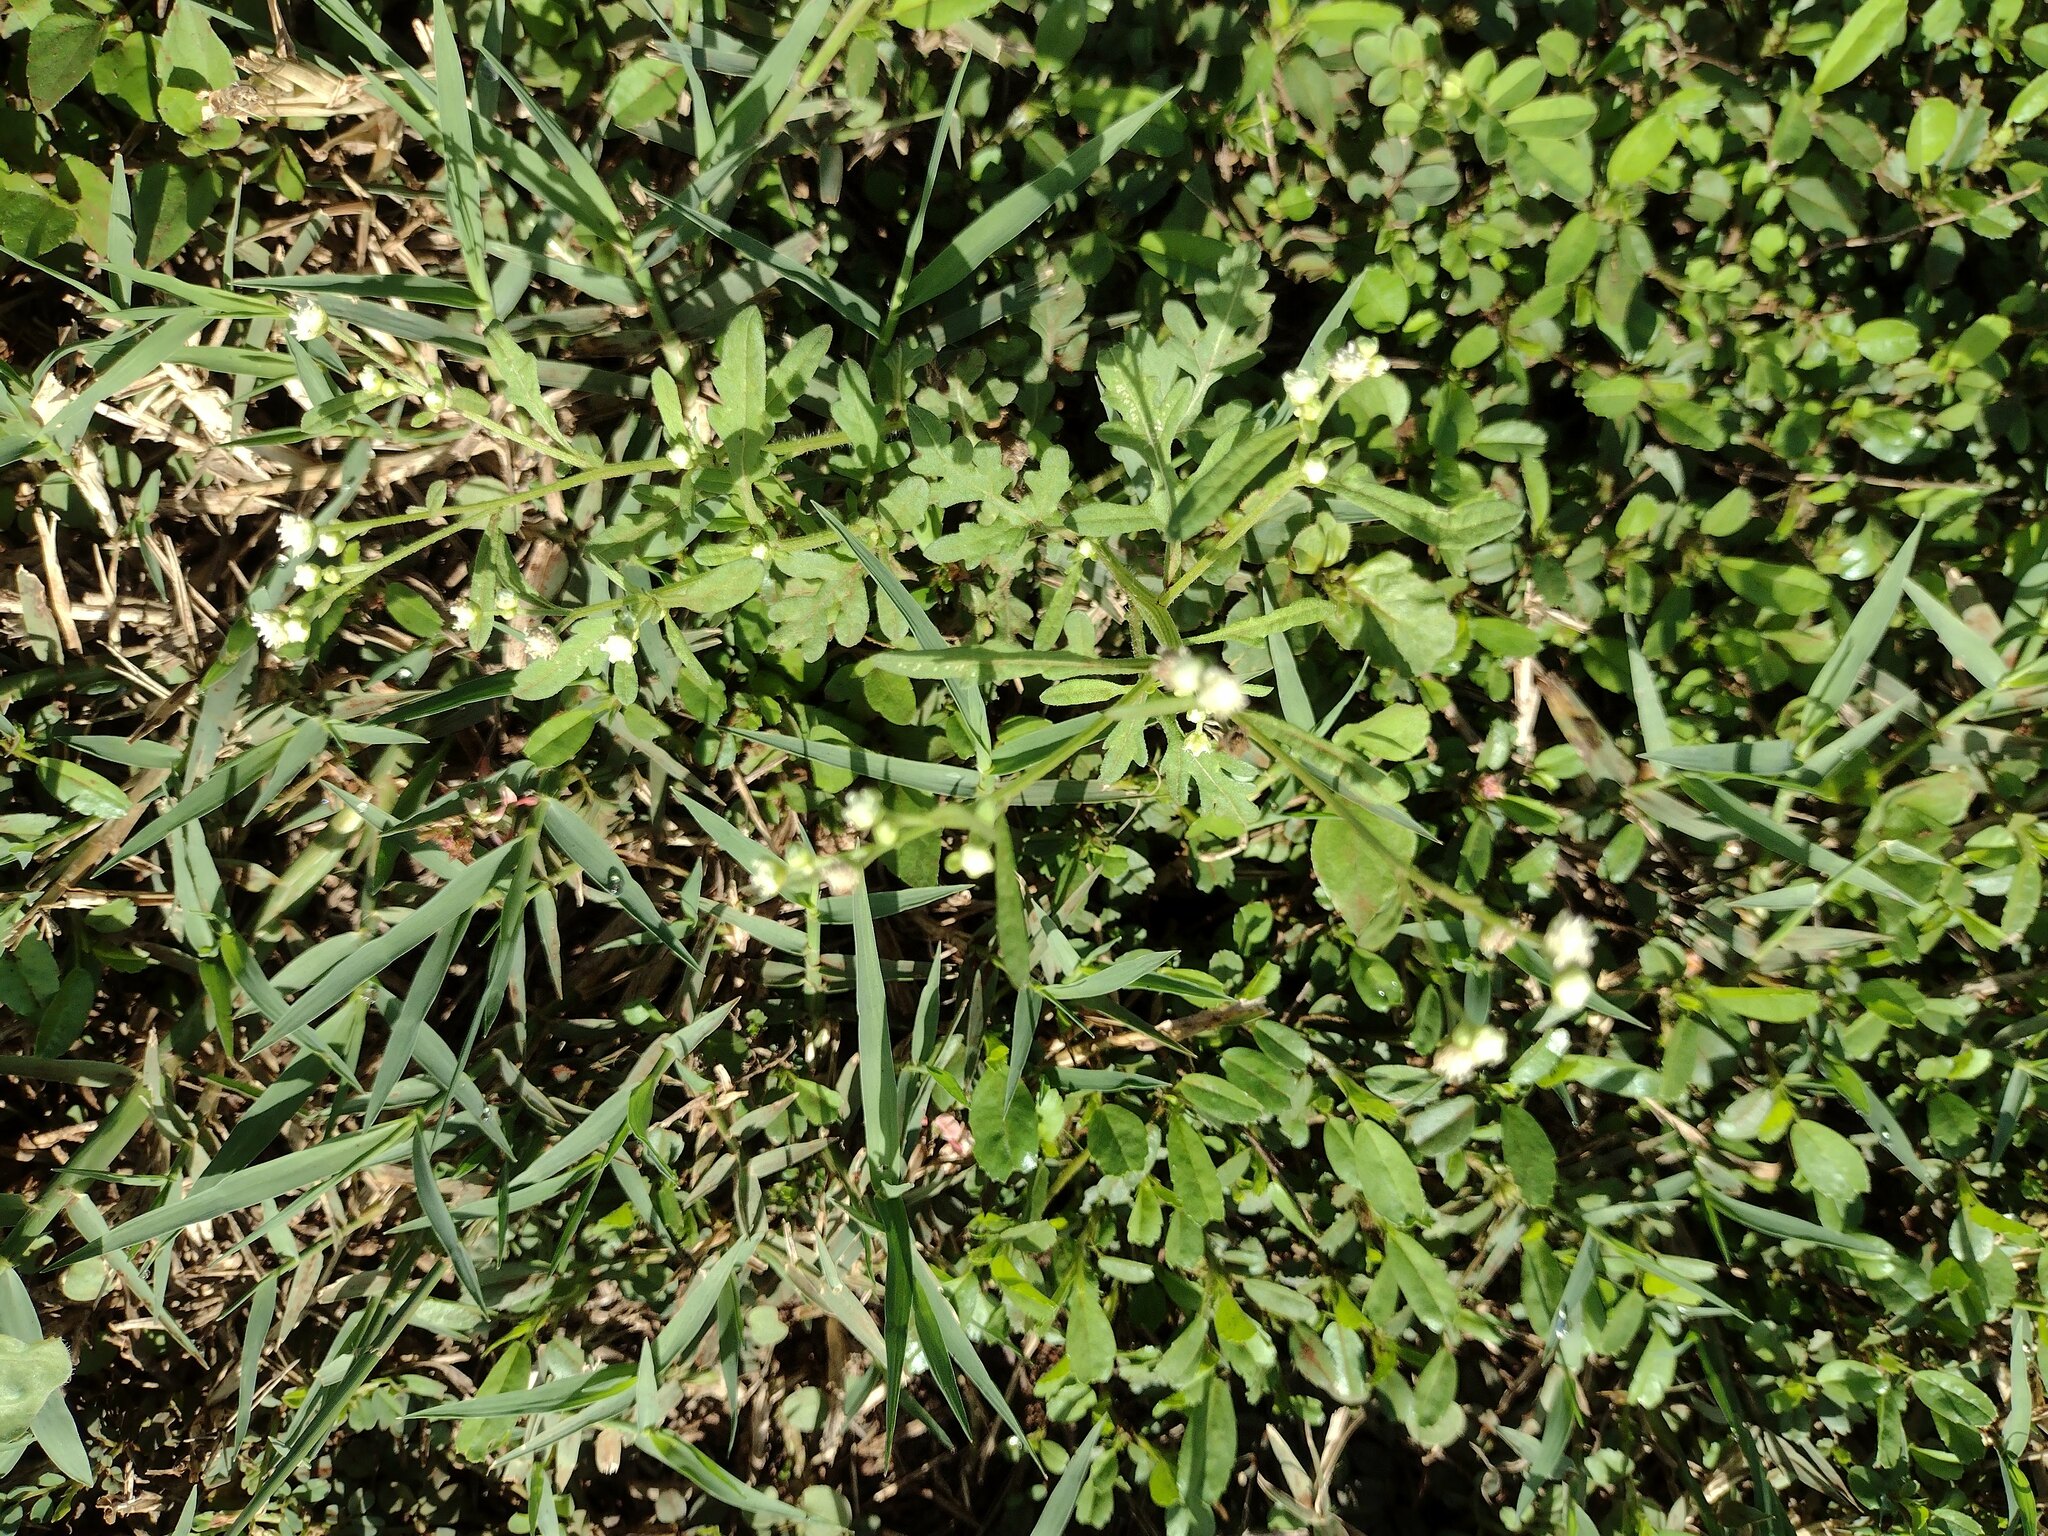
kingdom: Plantae
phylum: Tracheophyta
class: Magnoliopsida
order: Asterales
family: Asteraceae
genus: Parthenium
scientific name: Parthenium hysterophorus
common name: Santa maria feverfew
